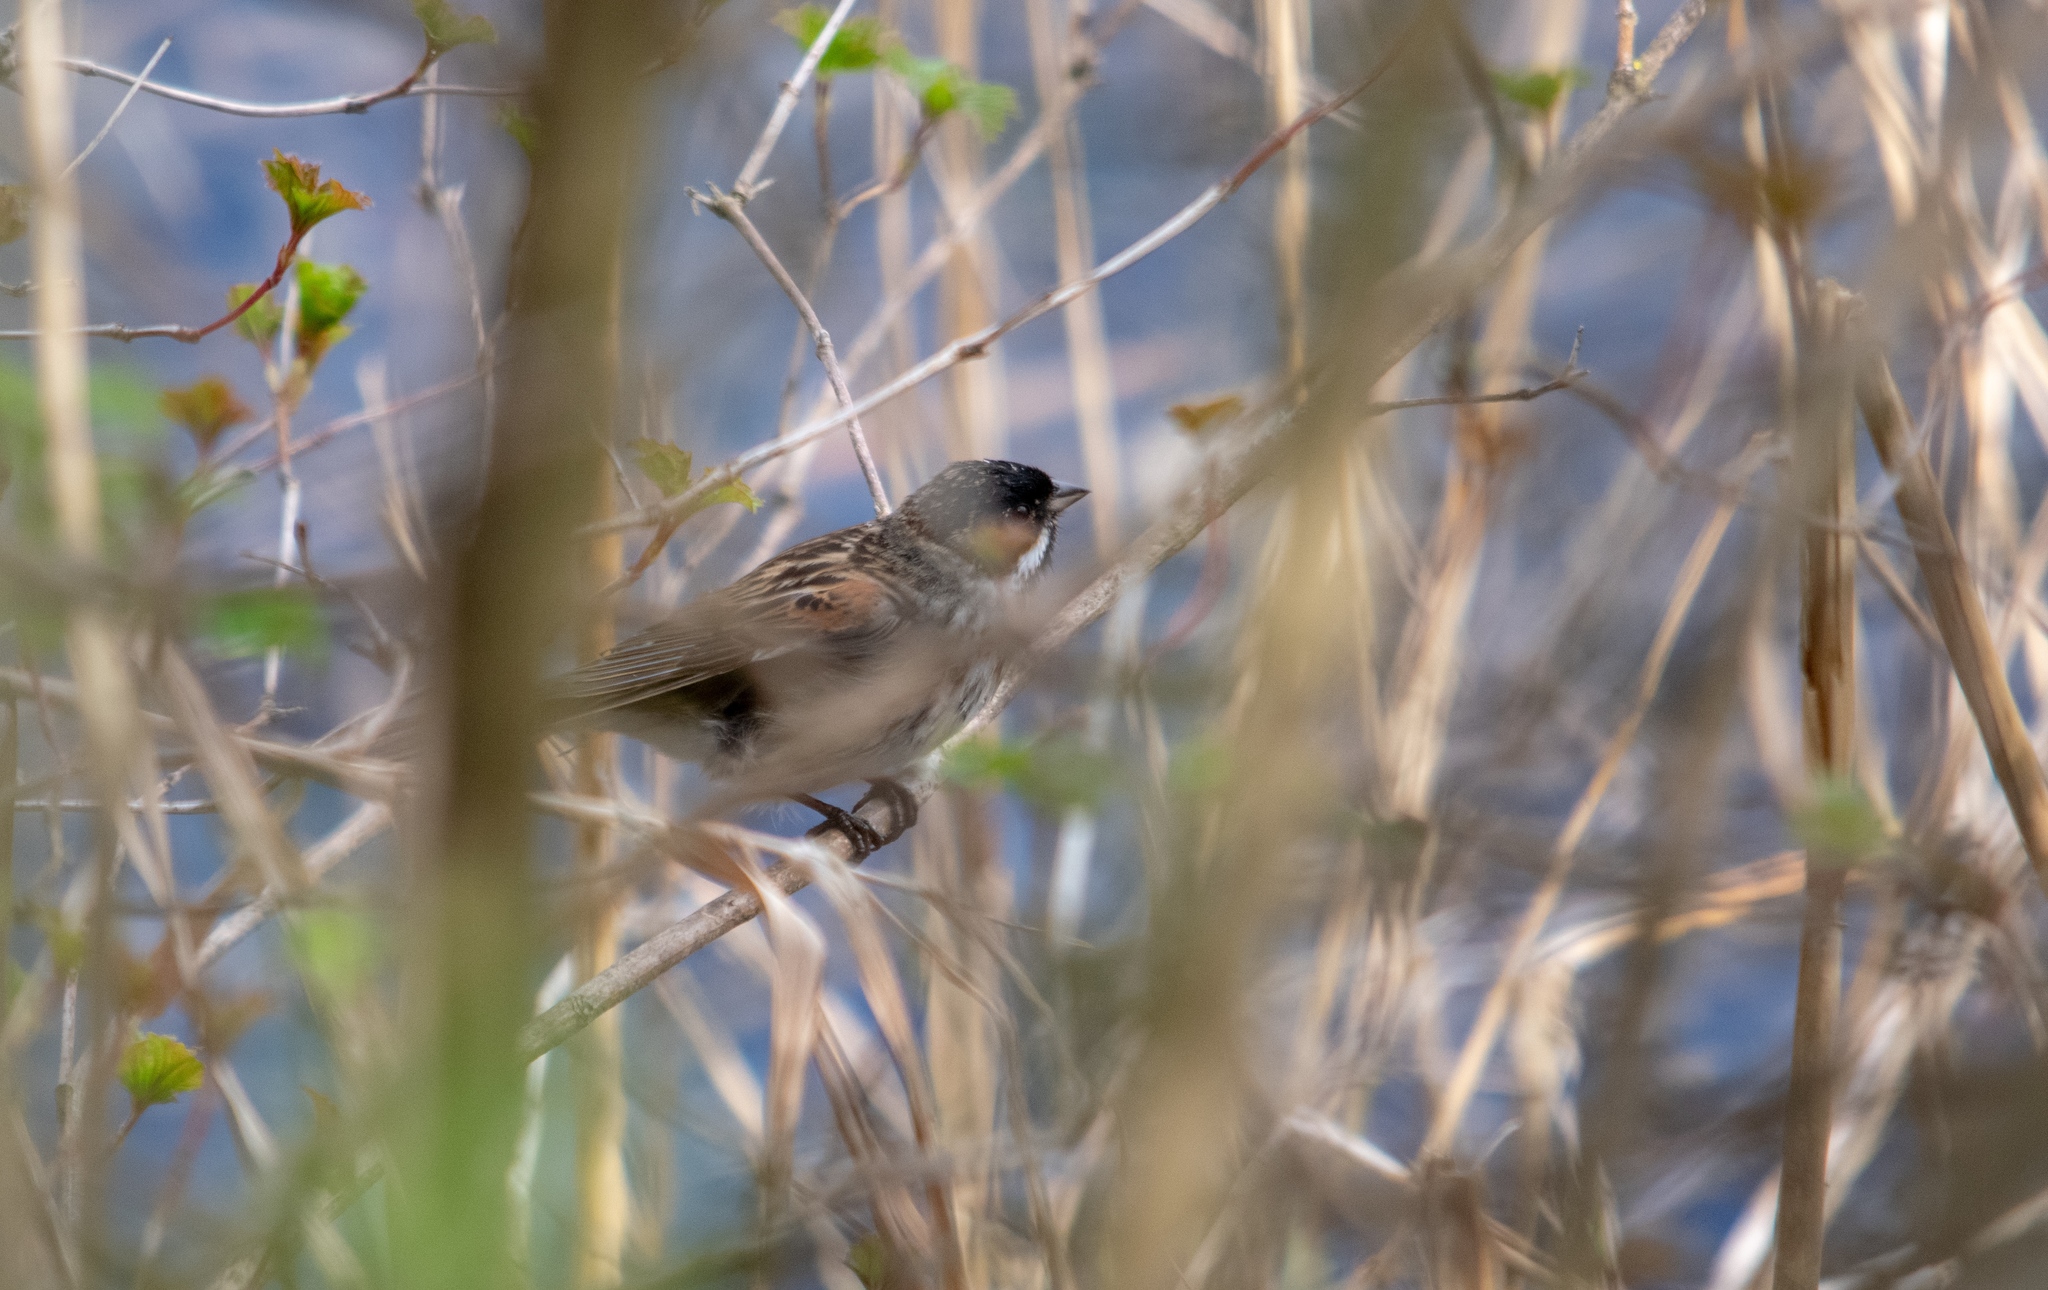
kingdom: Animalia
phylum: Chordata
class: Aves
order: Passeriformes
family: Emberizidae
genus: Emberiza
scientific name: Emberiza schoeniclus
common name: Reed bunting
